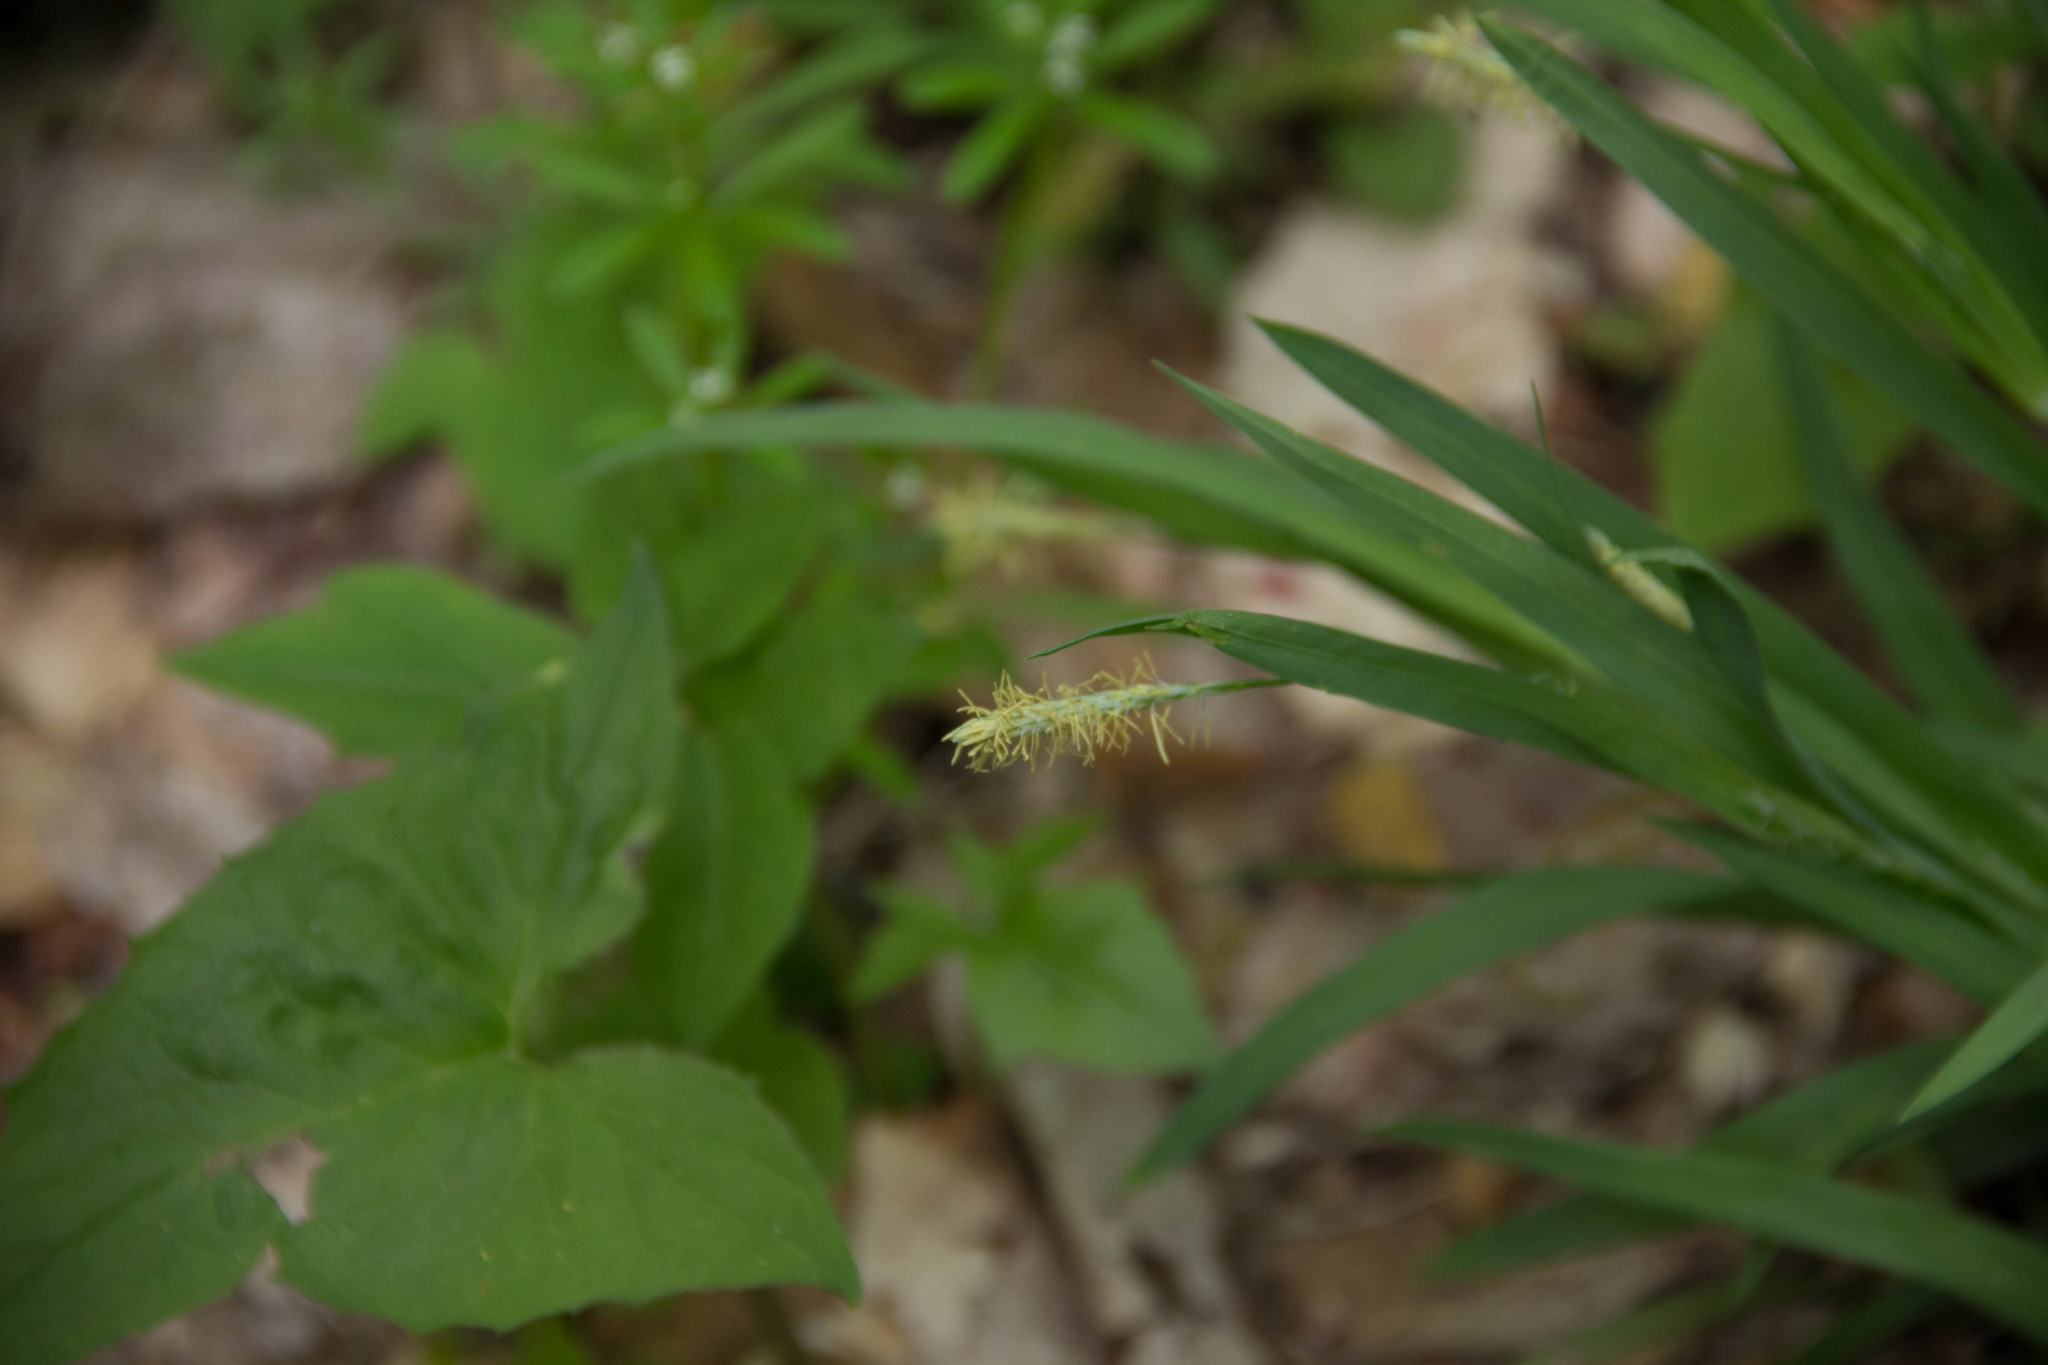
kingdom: Plantae
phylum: Tracheophyta
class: Liliopsida
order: Poales
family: Cyperaceae
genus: Carex
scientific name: Carex
